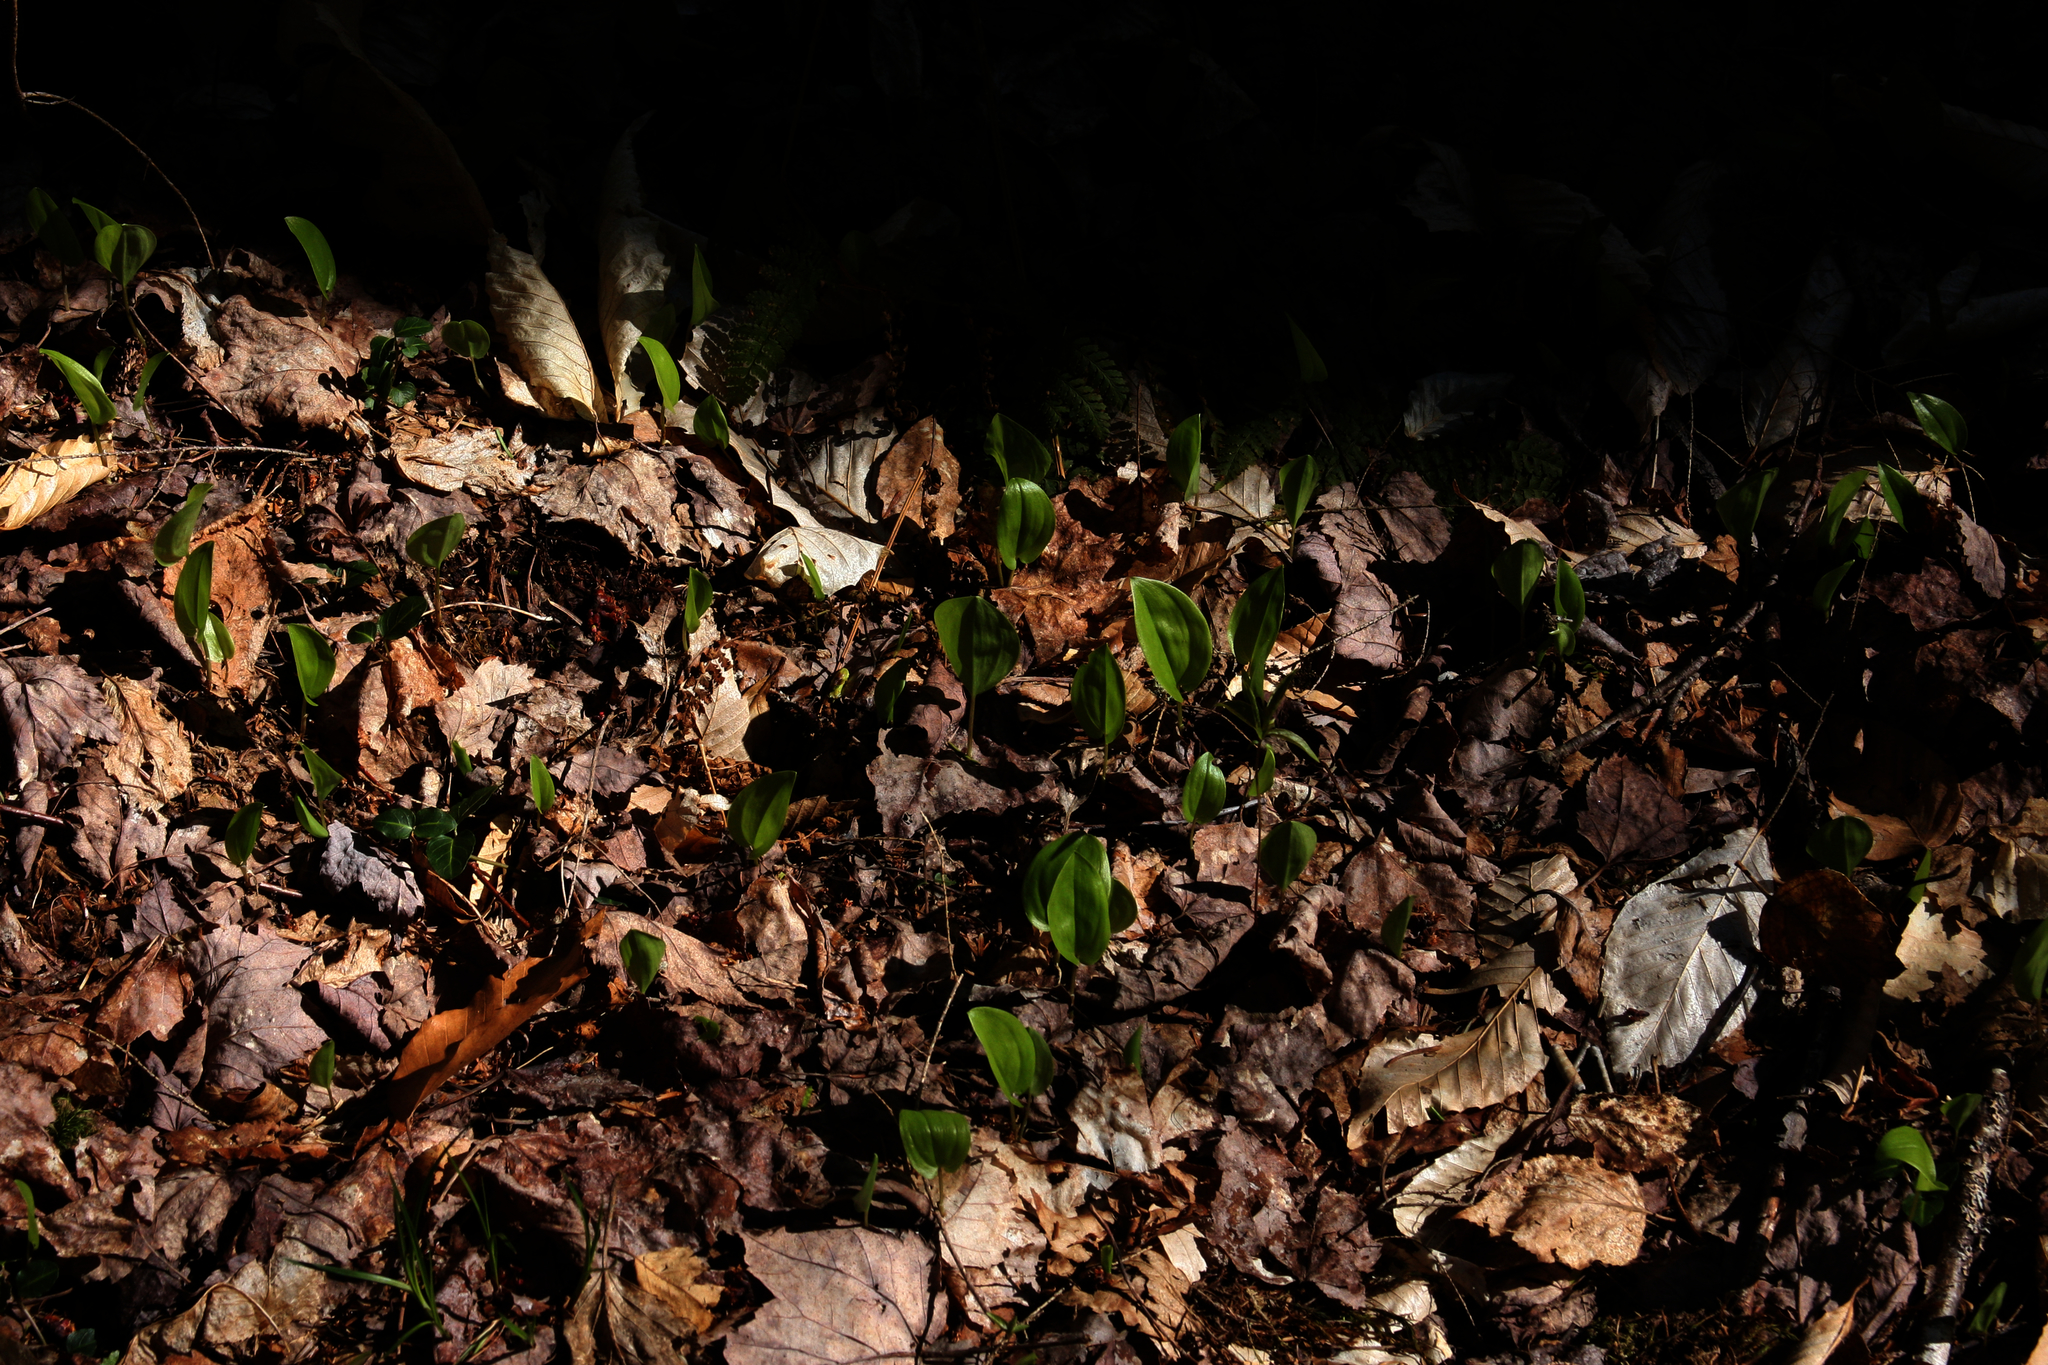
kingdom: Plantae
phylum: Tracheophyta
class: Liliopsida
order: Asparagales
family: Asparagaceae
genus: Maianthemum
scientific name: Maianthemum canadense
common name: False lily-of-the-valley
